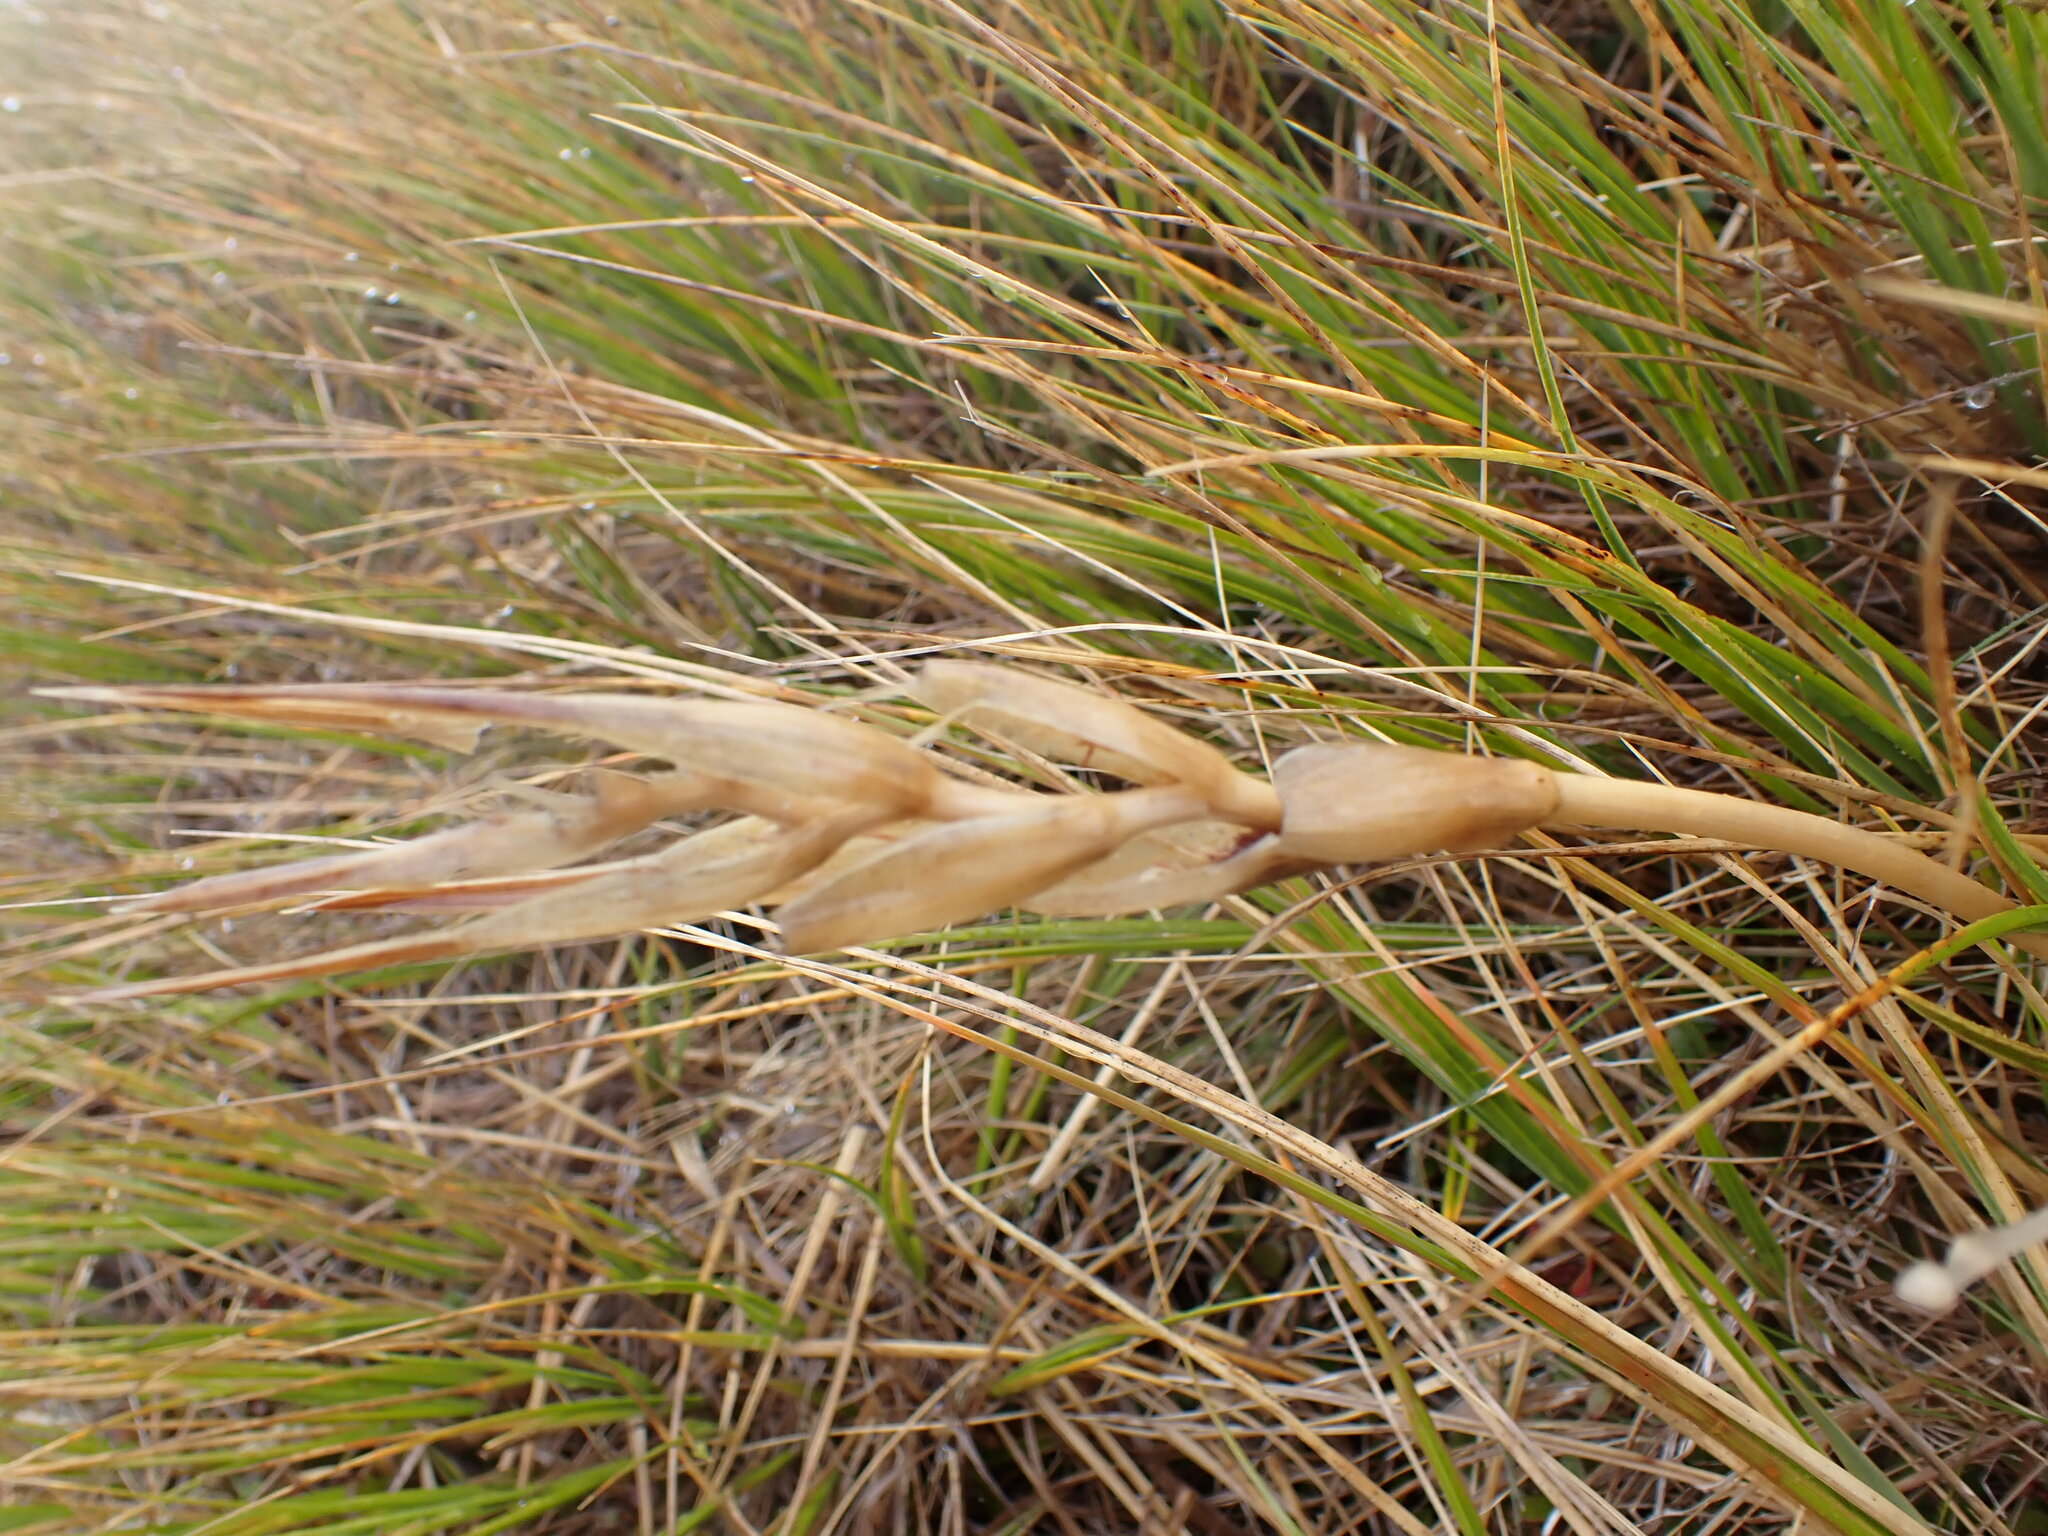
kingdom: Plantae
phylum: Tracheophyta
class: Magnoliopsida
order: Apiales
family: Apiaceae
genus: Aciphylla
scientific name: Aciphylla lyallii
